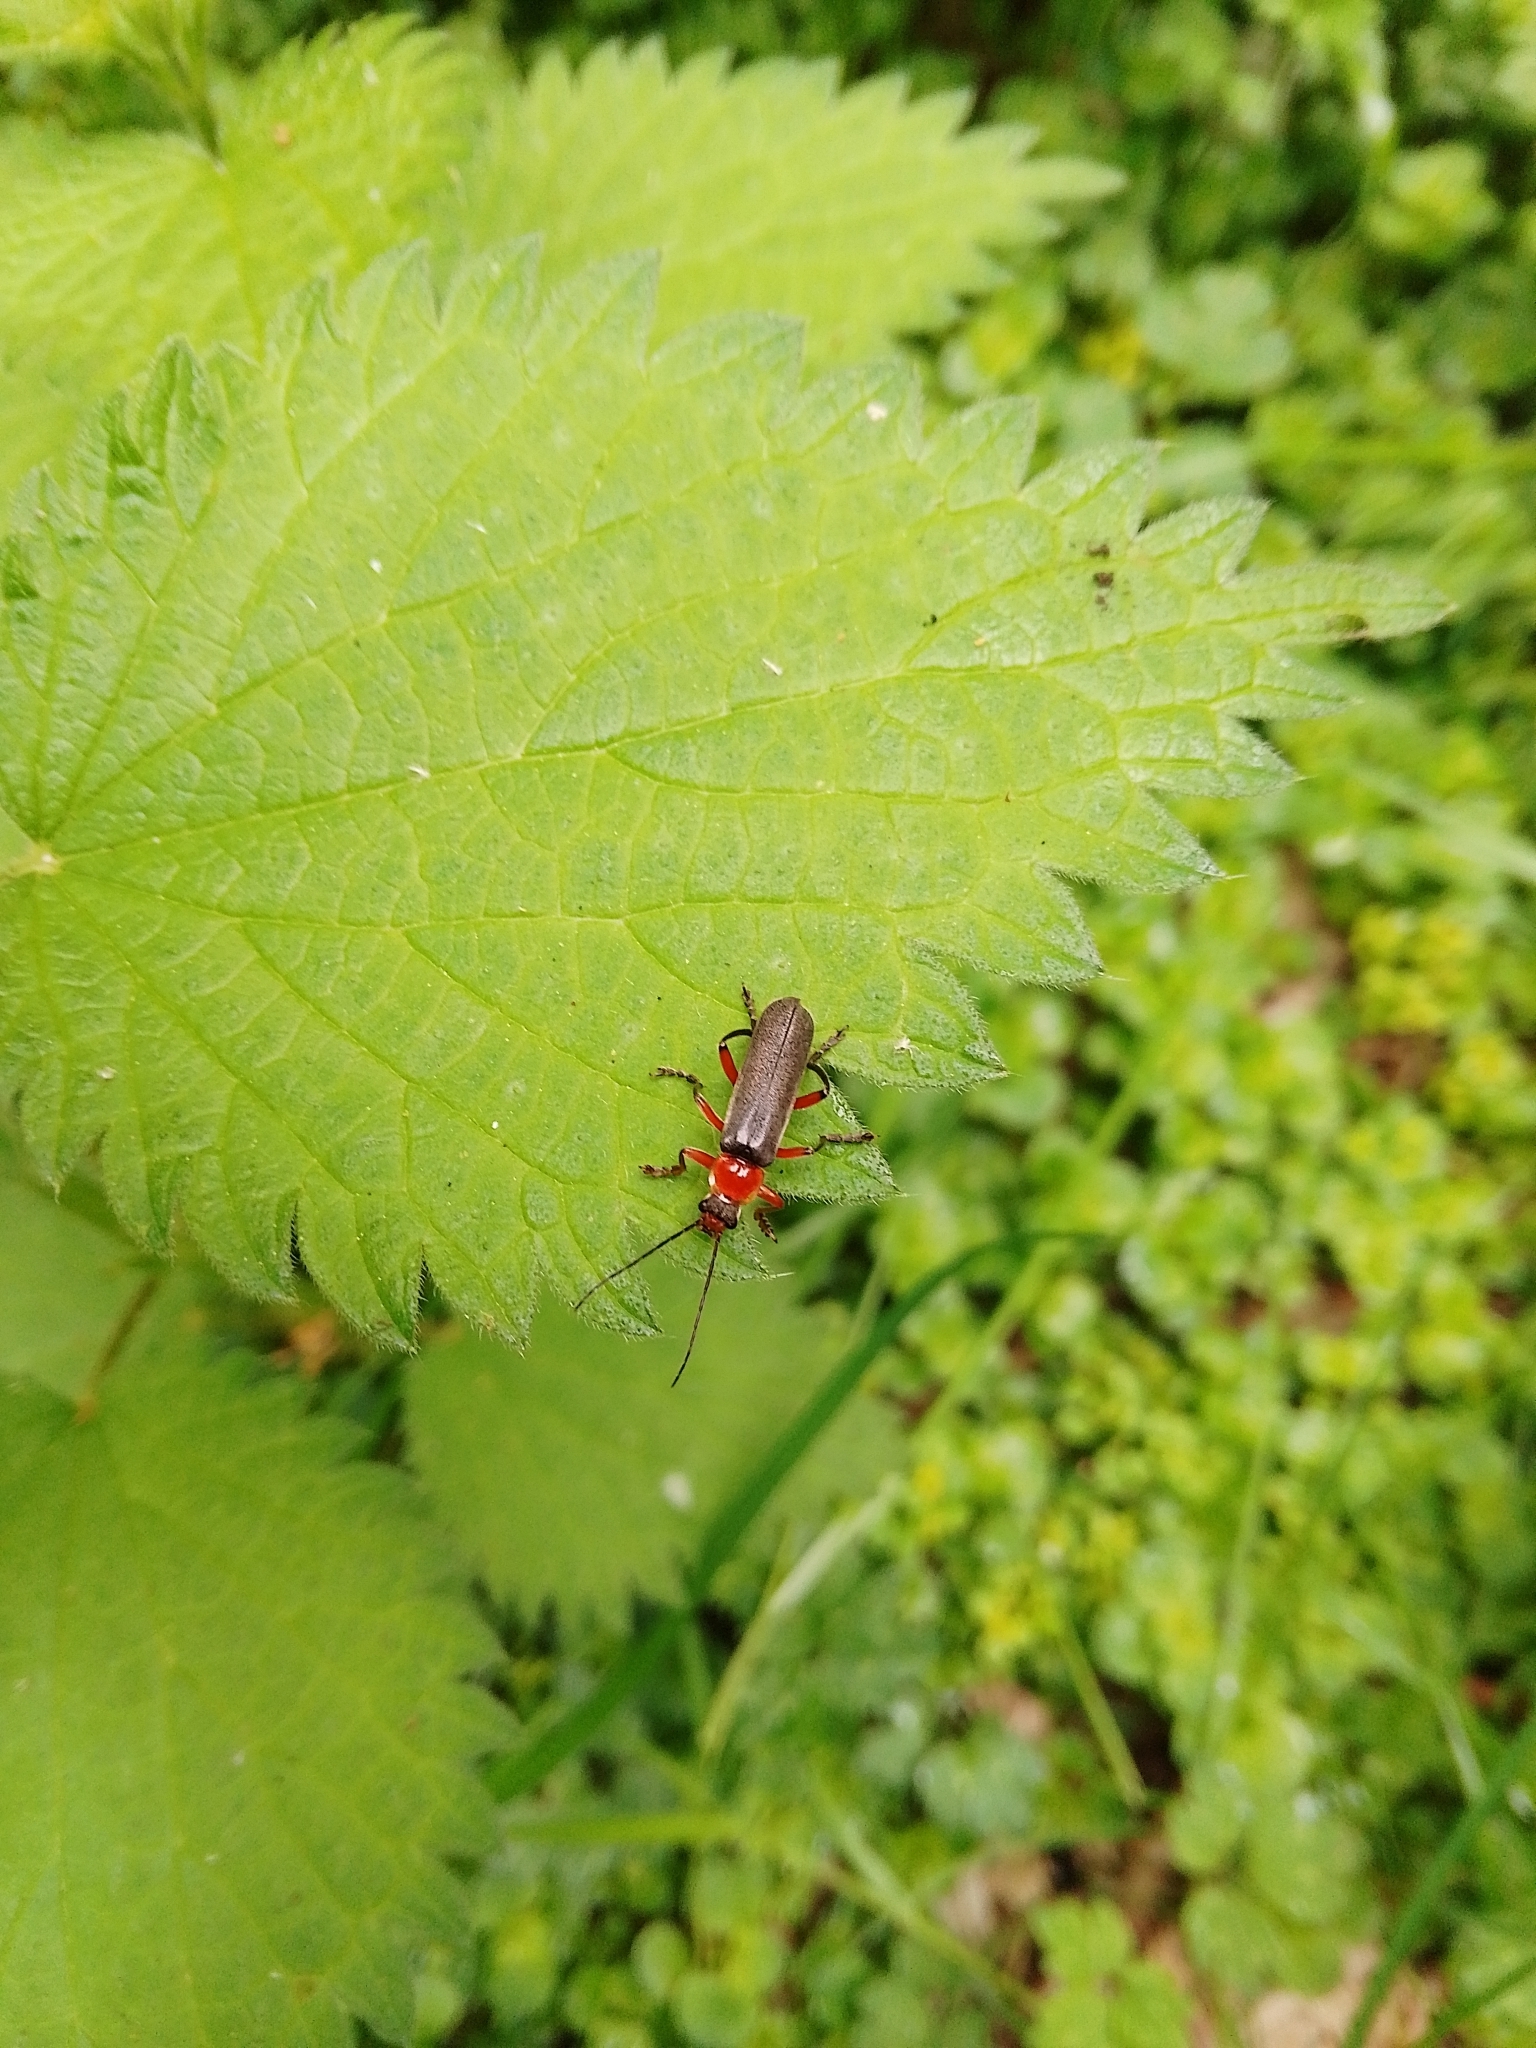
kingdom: Animalia
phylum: Arthropoda
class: Insecta
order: Coleoptera
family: Cantharidae
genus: Cantharis
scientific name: Cantharis pellucida
